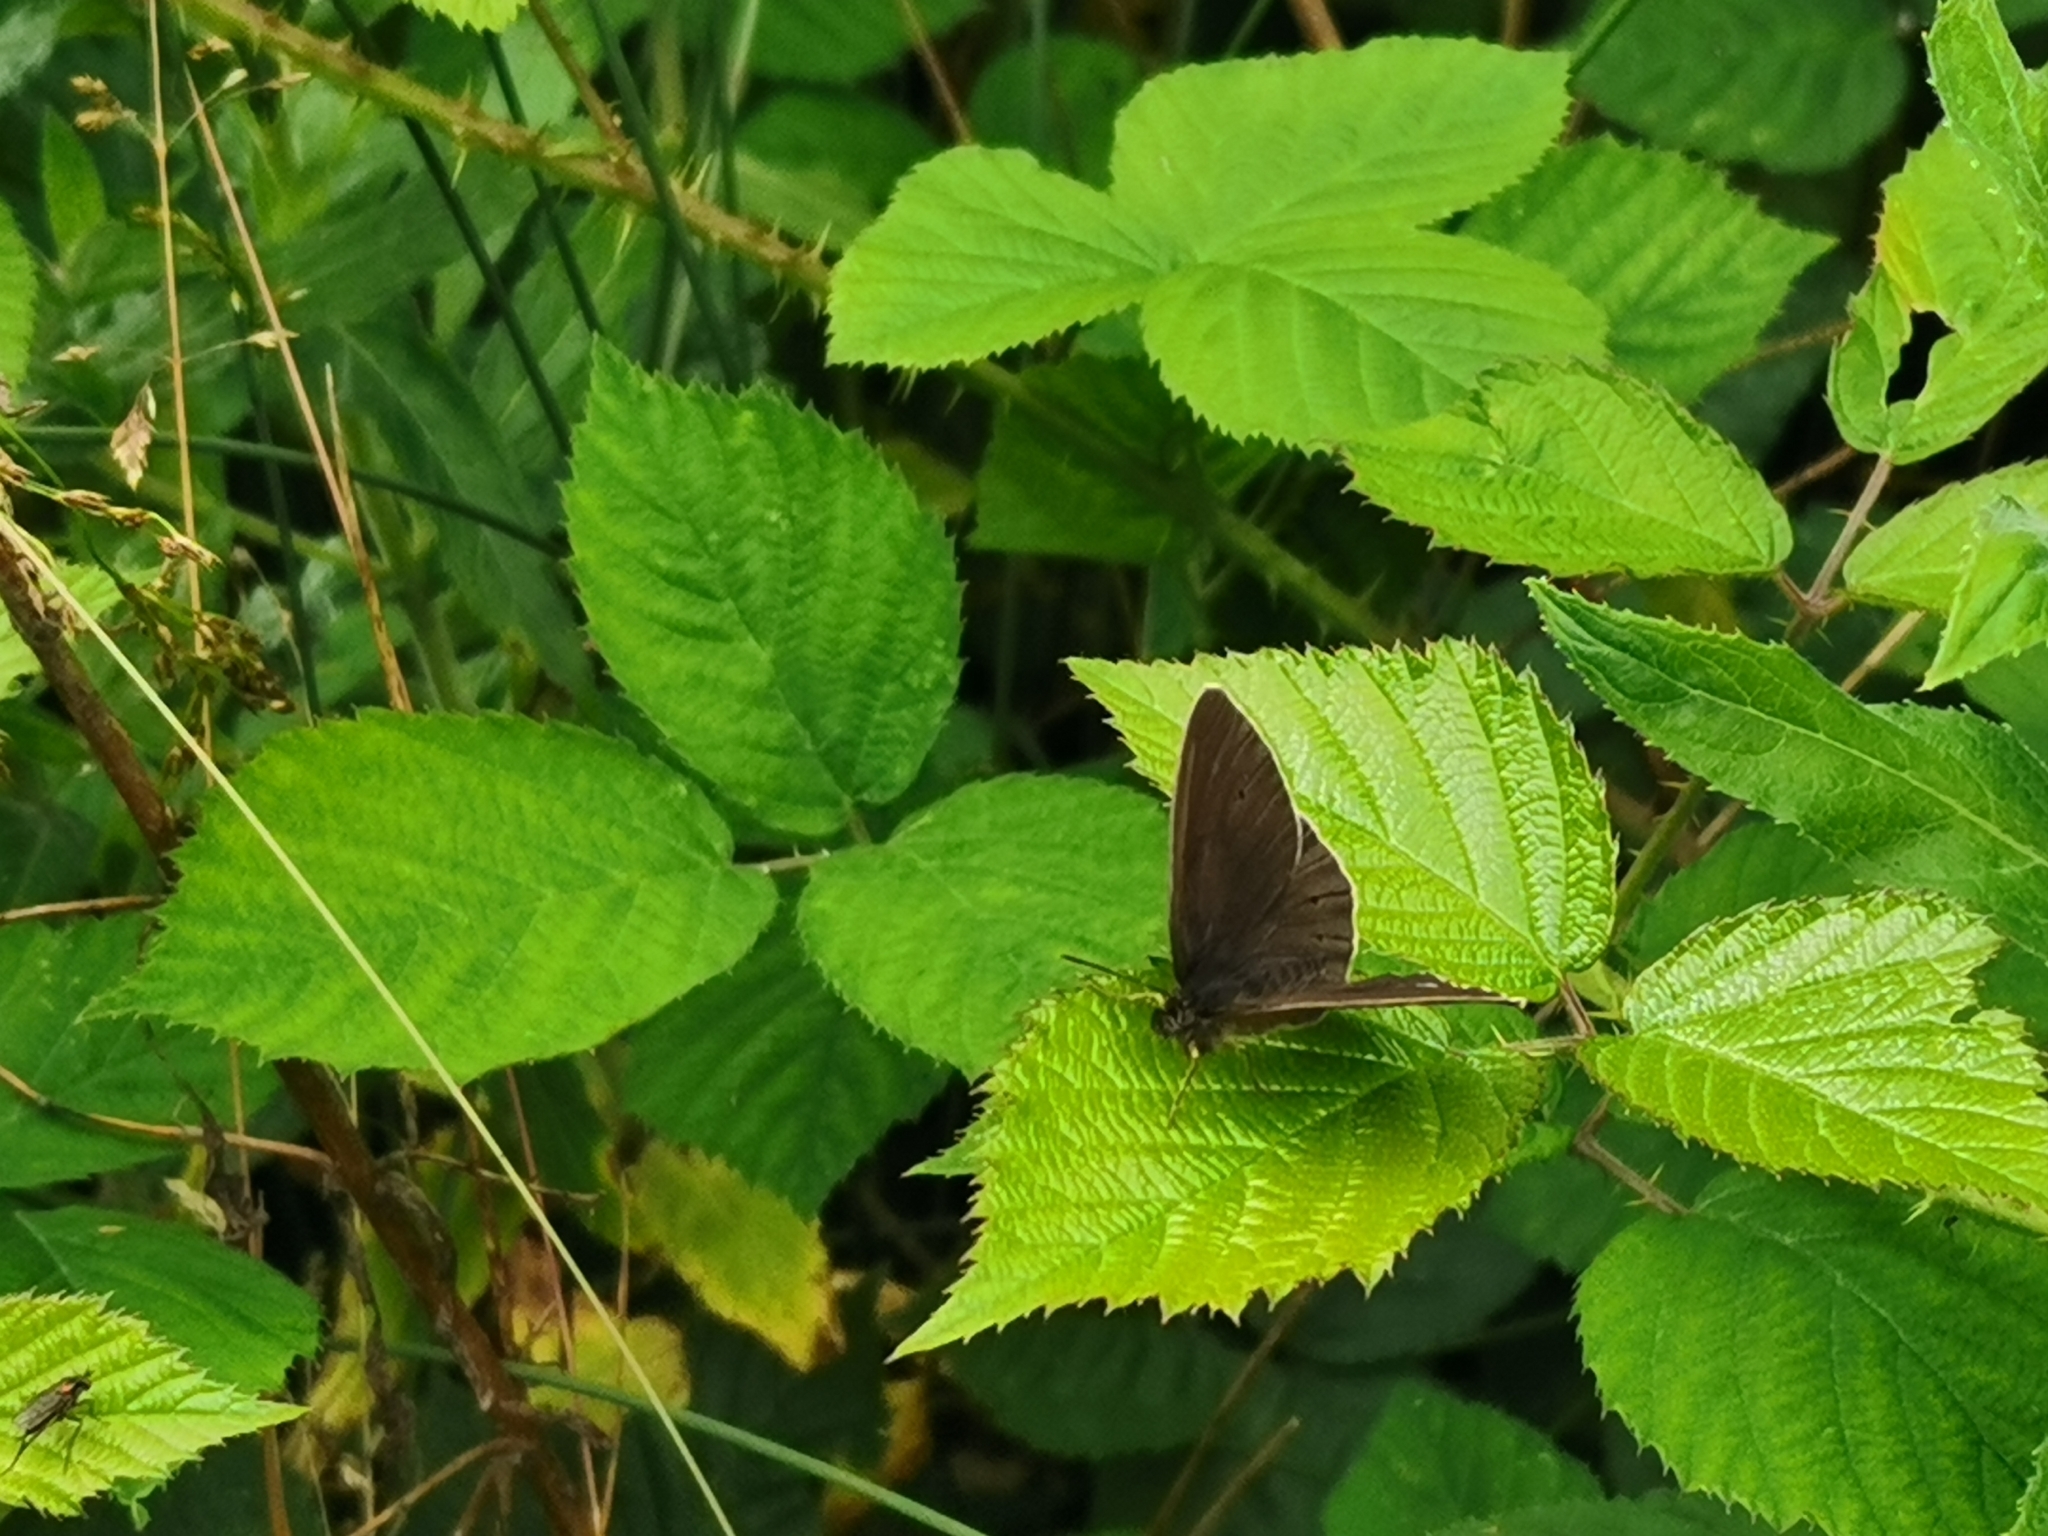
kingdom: Animalia
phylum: Arthropoda
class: Insecta
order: Lepidoptera
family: Nymphalidae
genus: Aphantopus
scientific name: Aphantopus hyperantus
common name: Ringlet
